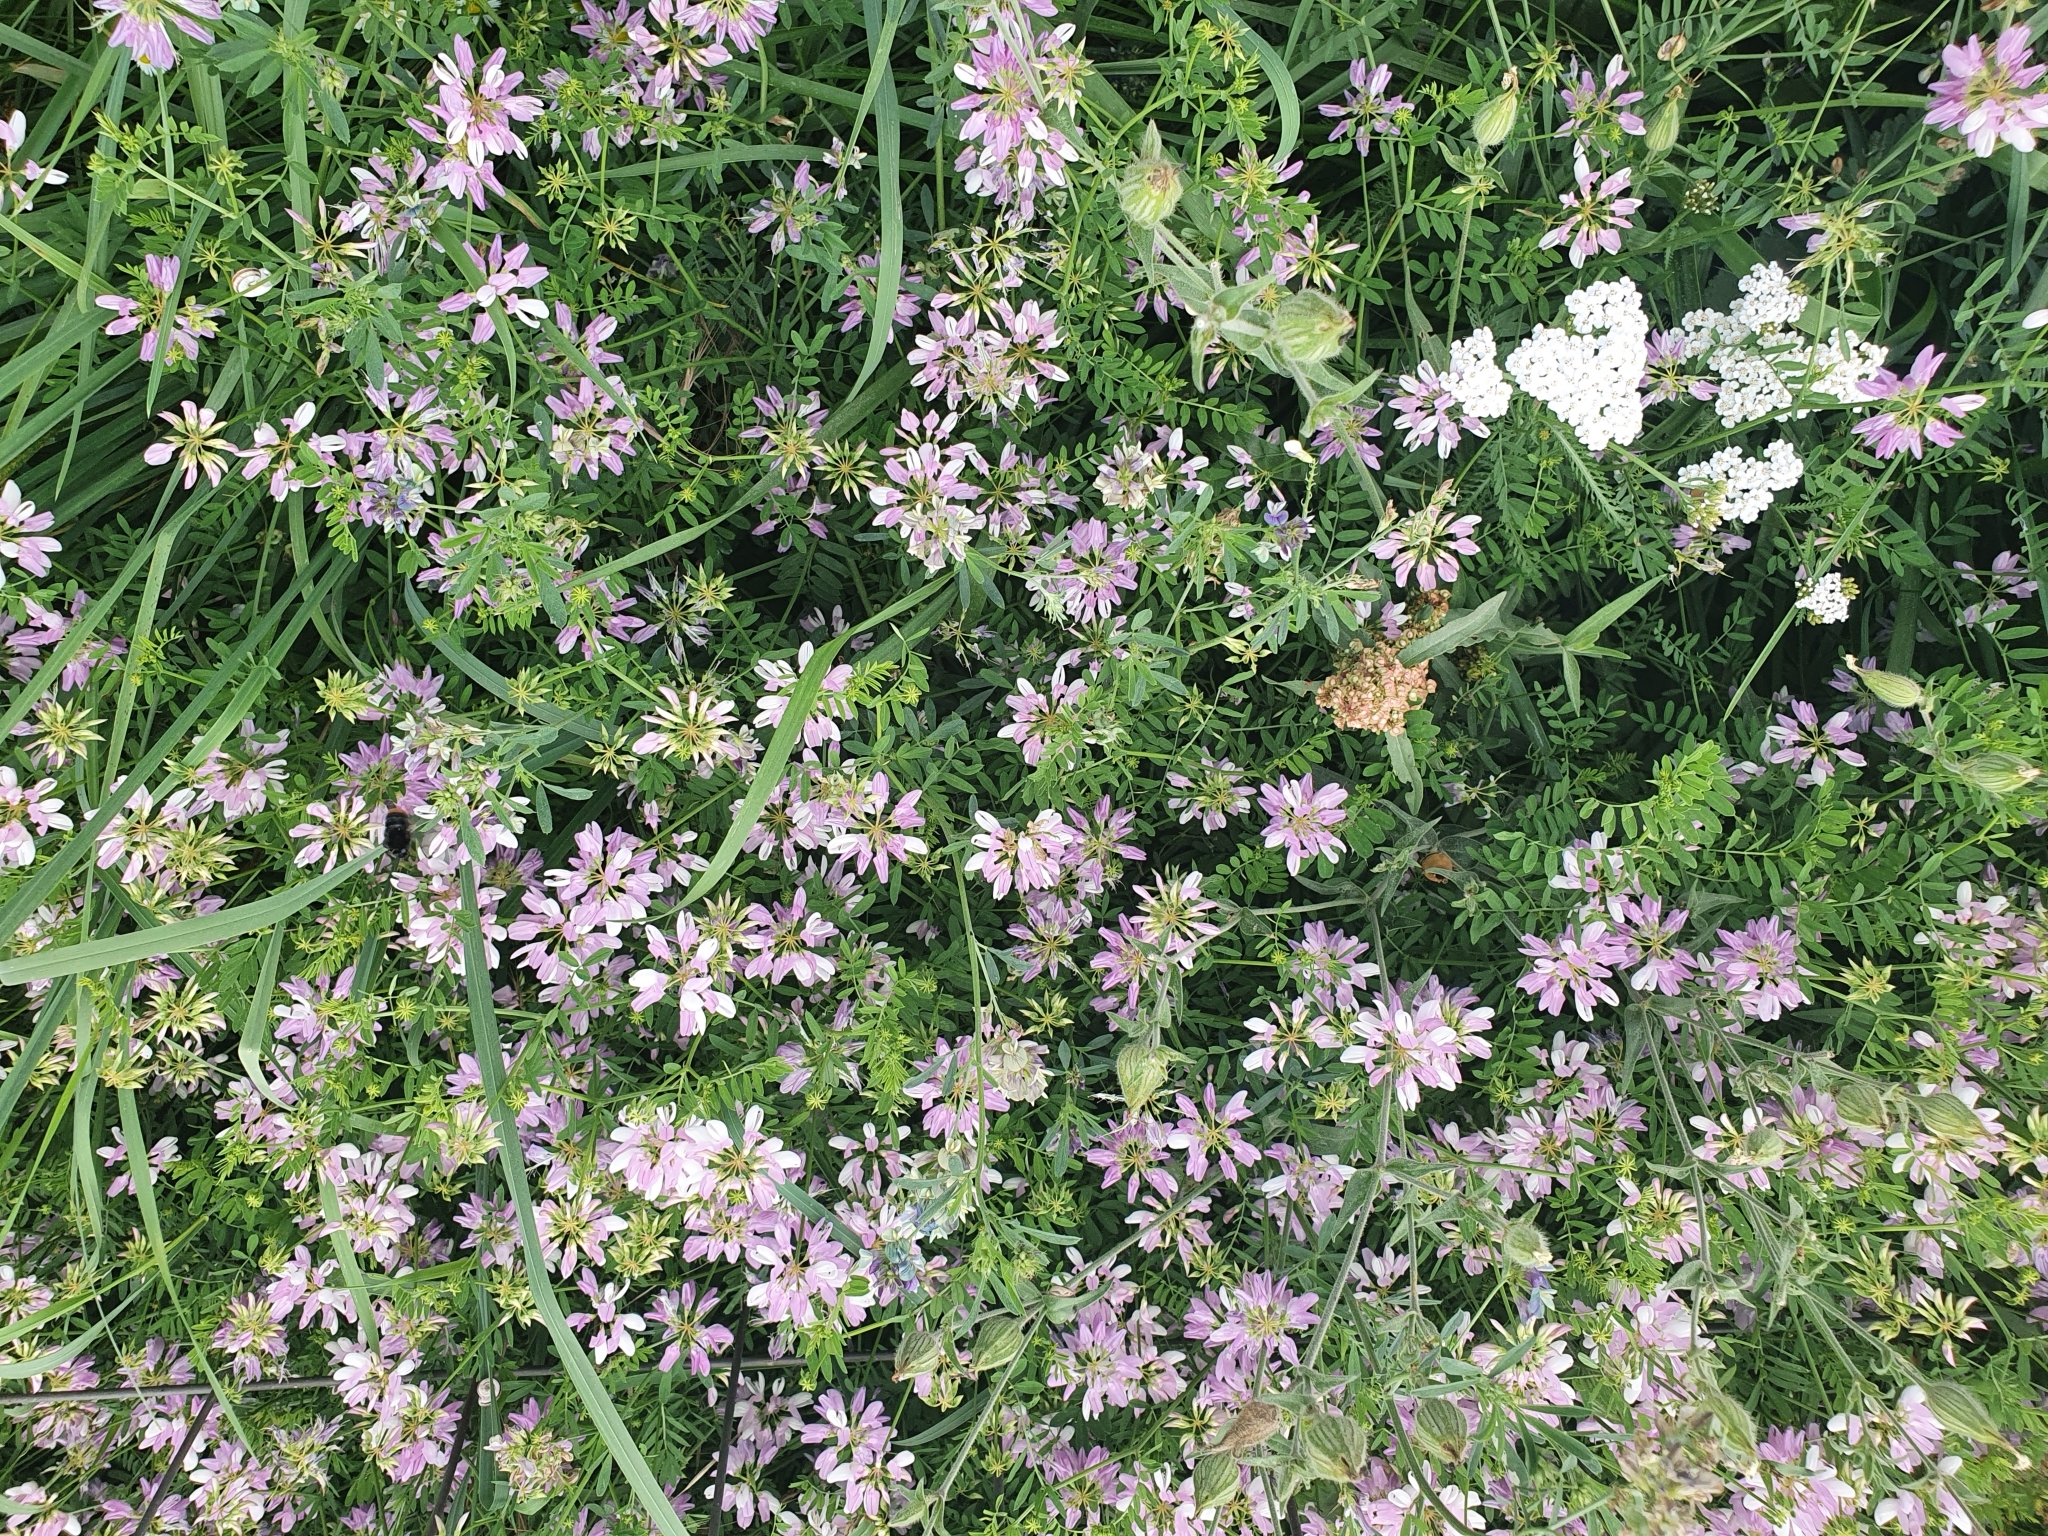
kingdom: Plantae
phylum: Tracheophyta
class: Magnoliopsida
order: Fabales
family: Fabaceae
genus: Coronilla
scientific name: Coronilla varia
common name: Crownvetch
